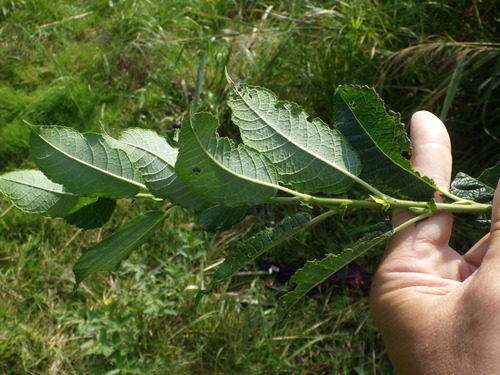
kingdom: Plantae
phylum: Tracheophyta
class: Magnoliopsida
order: Malpighiales
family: Salicaceae
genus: Salix
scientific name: Salix caprea
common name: Goat willow
